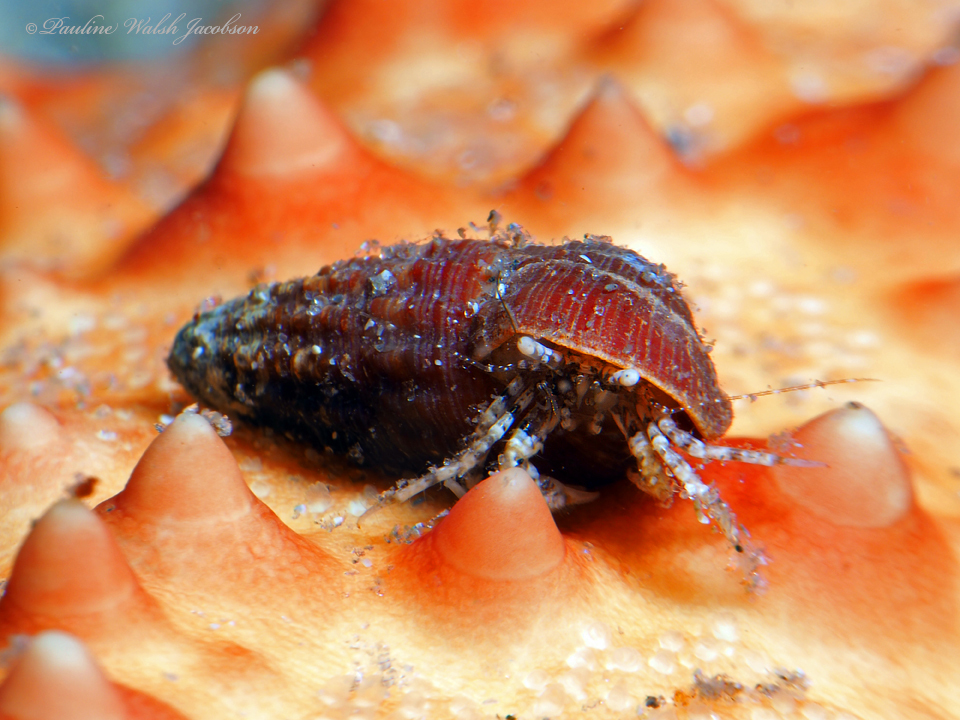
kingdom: Animalia
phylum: Arthropoda
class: Malacostraca
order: Decapoda
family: Paguridae
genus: Pagurus
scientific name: Pagurus maclaughlinae
